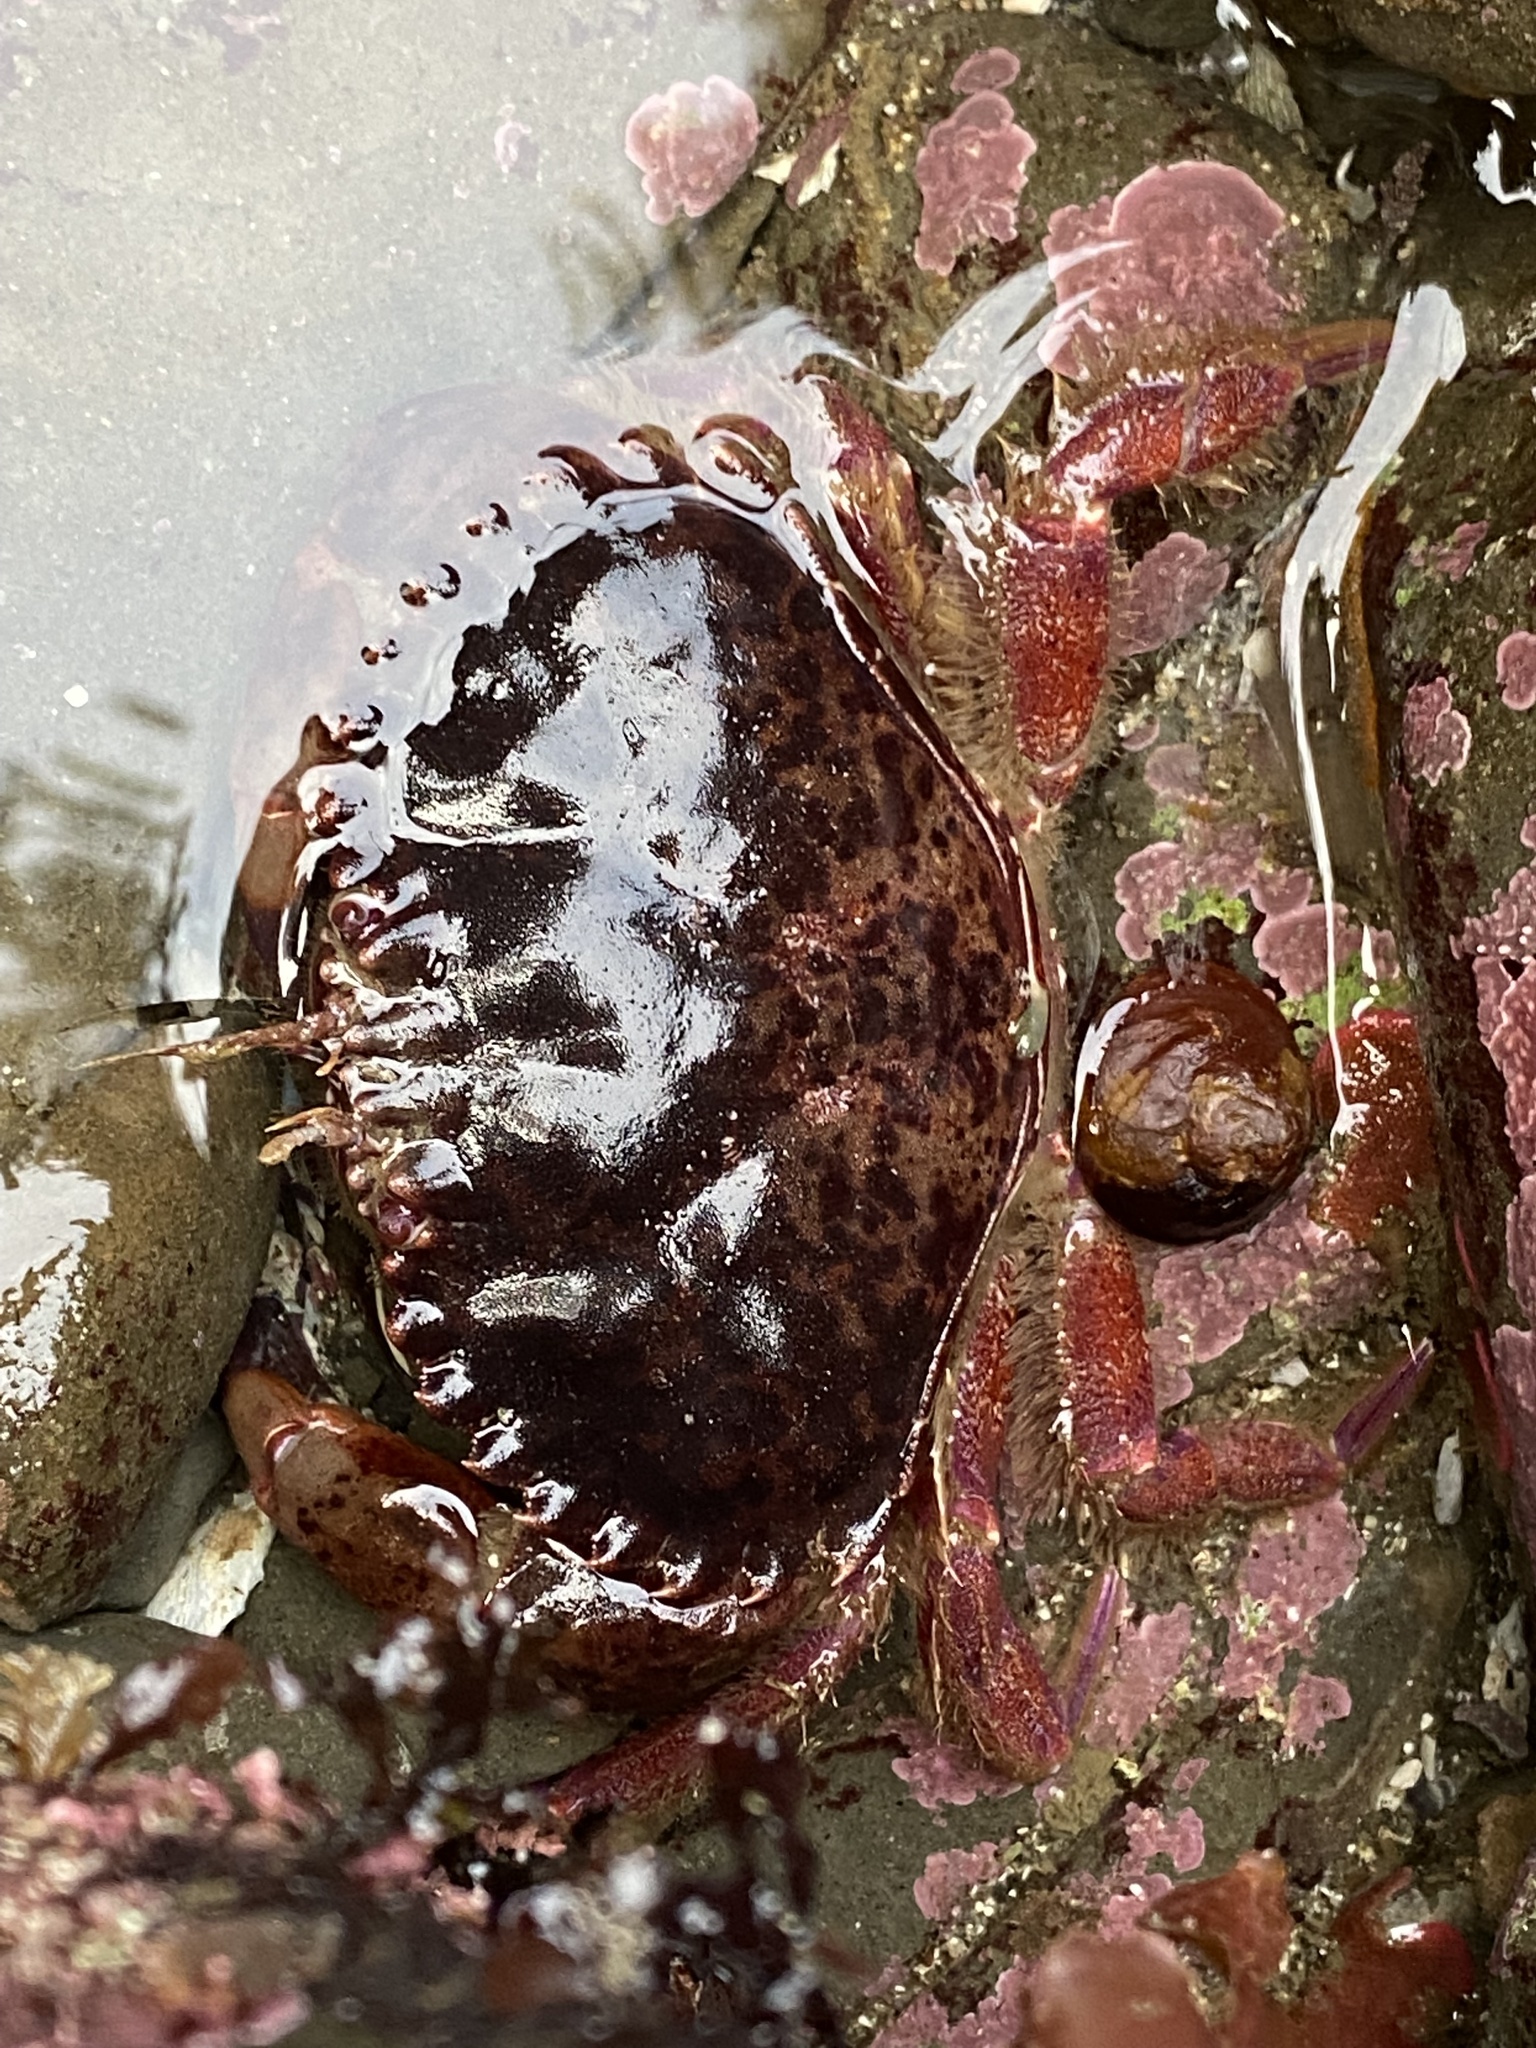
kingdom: Animalia
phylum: Arthropoda
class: Malacostraca
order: Decapoda
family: Cancridae
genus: Romaleon
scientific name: Romaleon antennarium
